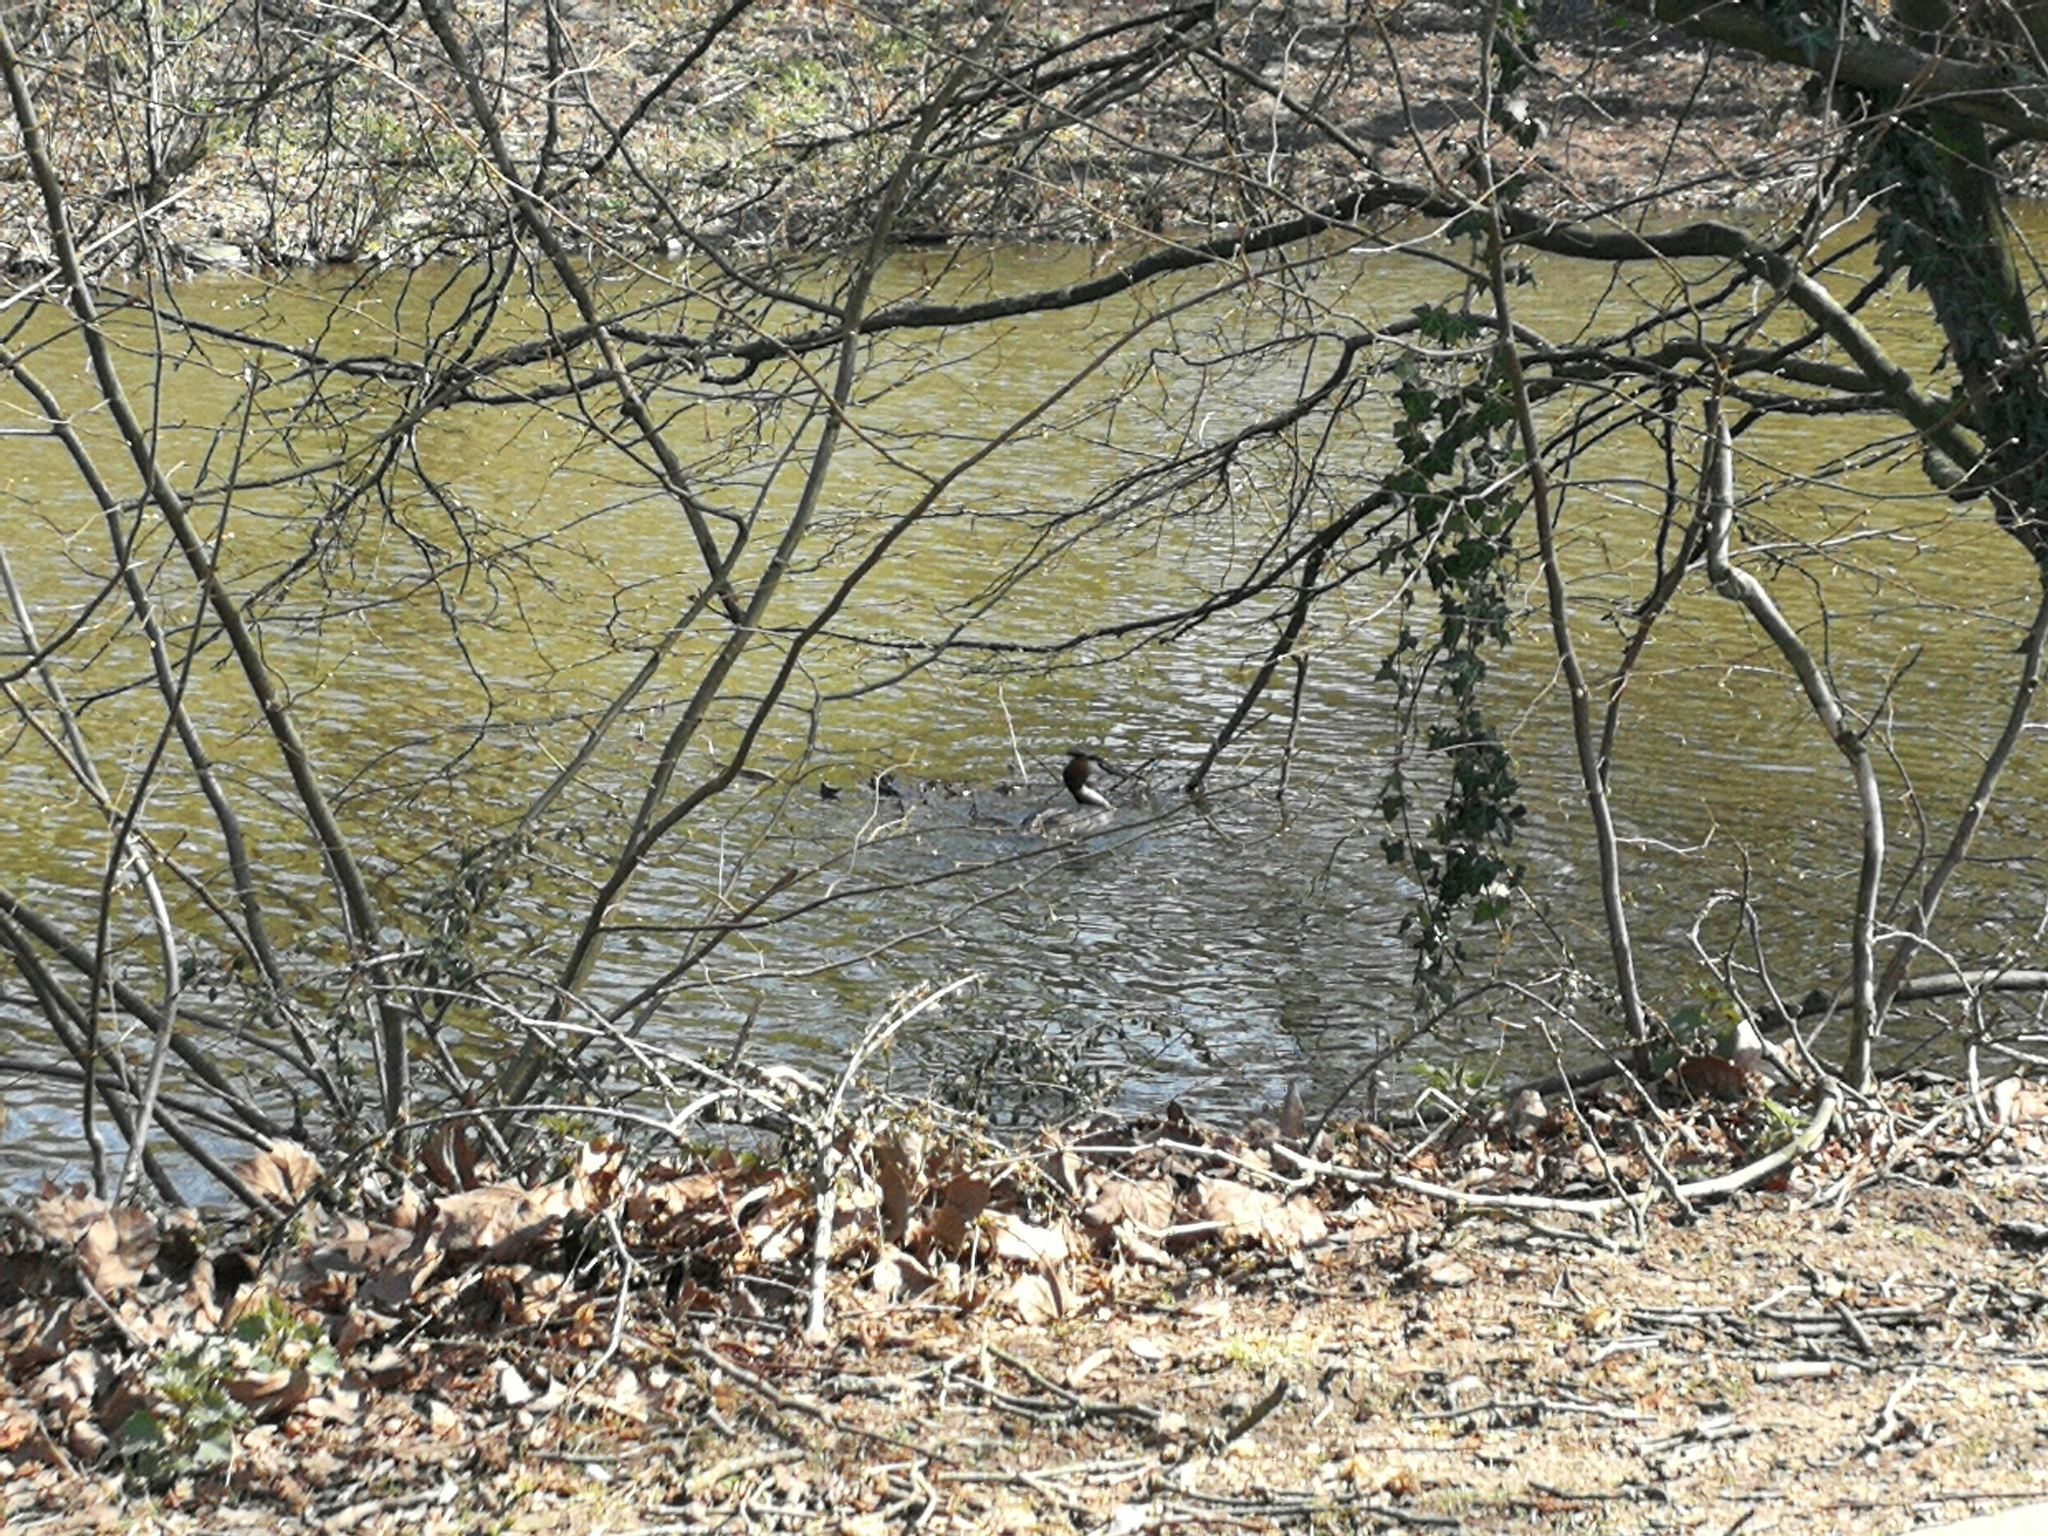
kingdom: Animalia
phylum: Chordata
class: Aves
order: Podicipediformes
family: Podicipedidae
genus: Podiceps
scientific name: Podiceps cristatus
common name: Great crested grebe
